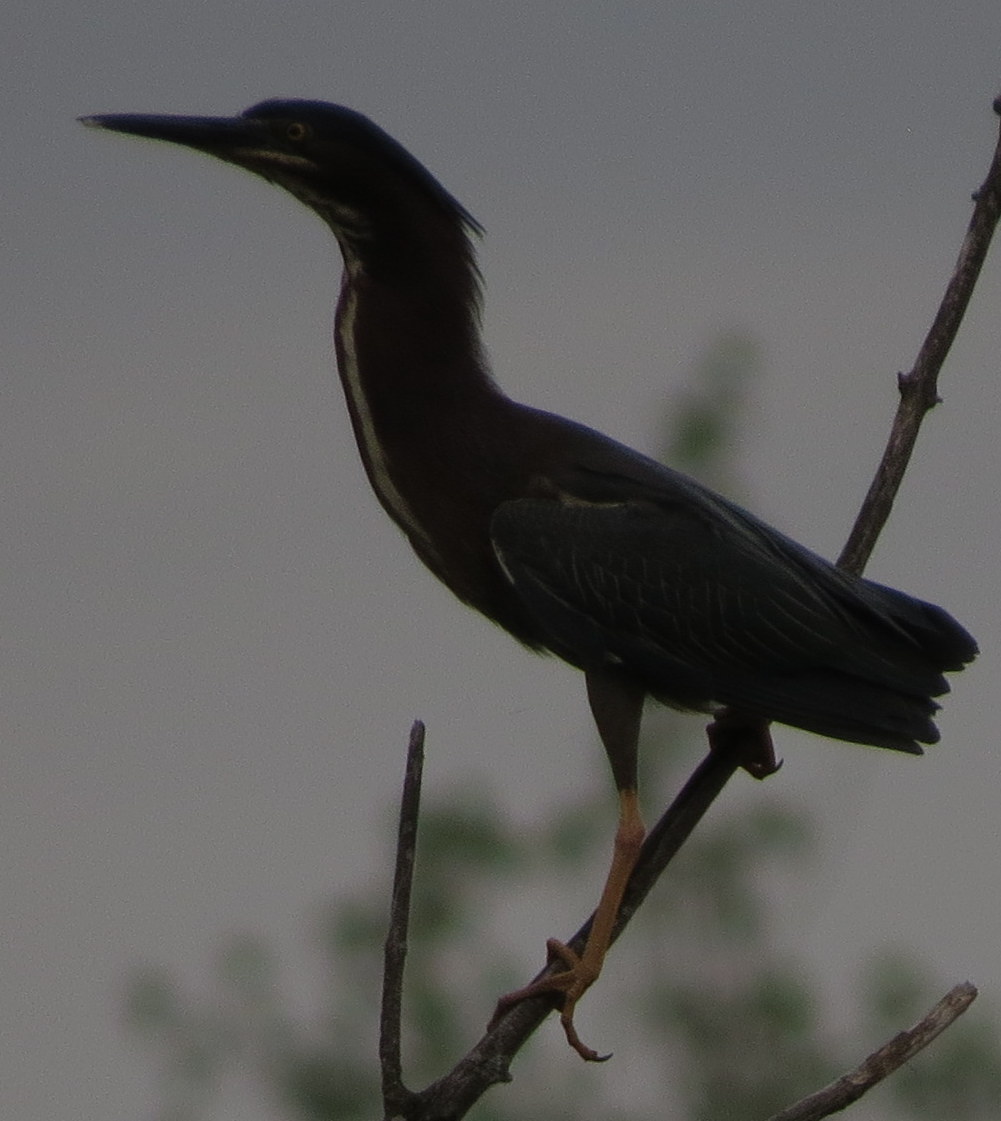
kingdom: Animalia
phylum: Chordata
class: Aves
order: Pelecaniformes
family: Ardeidae
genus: Butorides
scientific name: Butorides virescens
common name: Green heron
